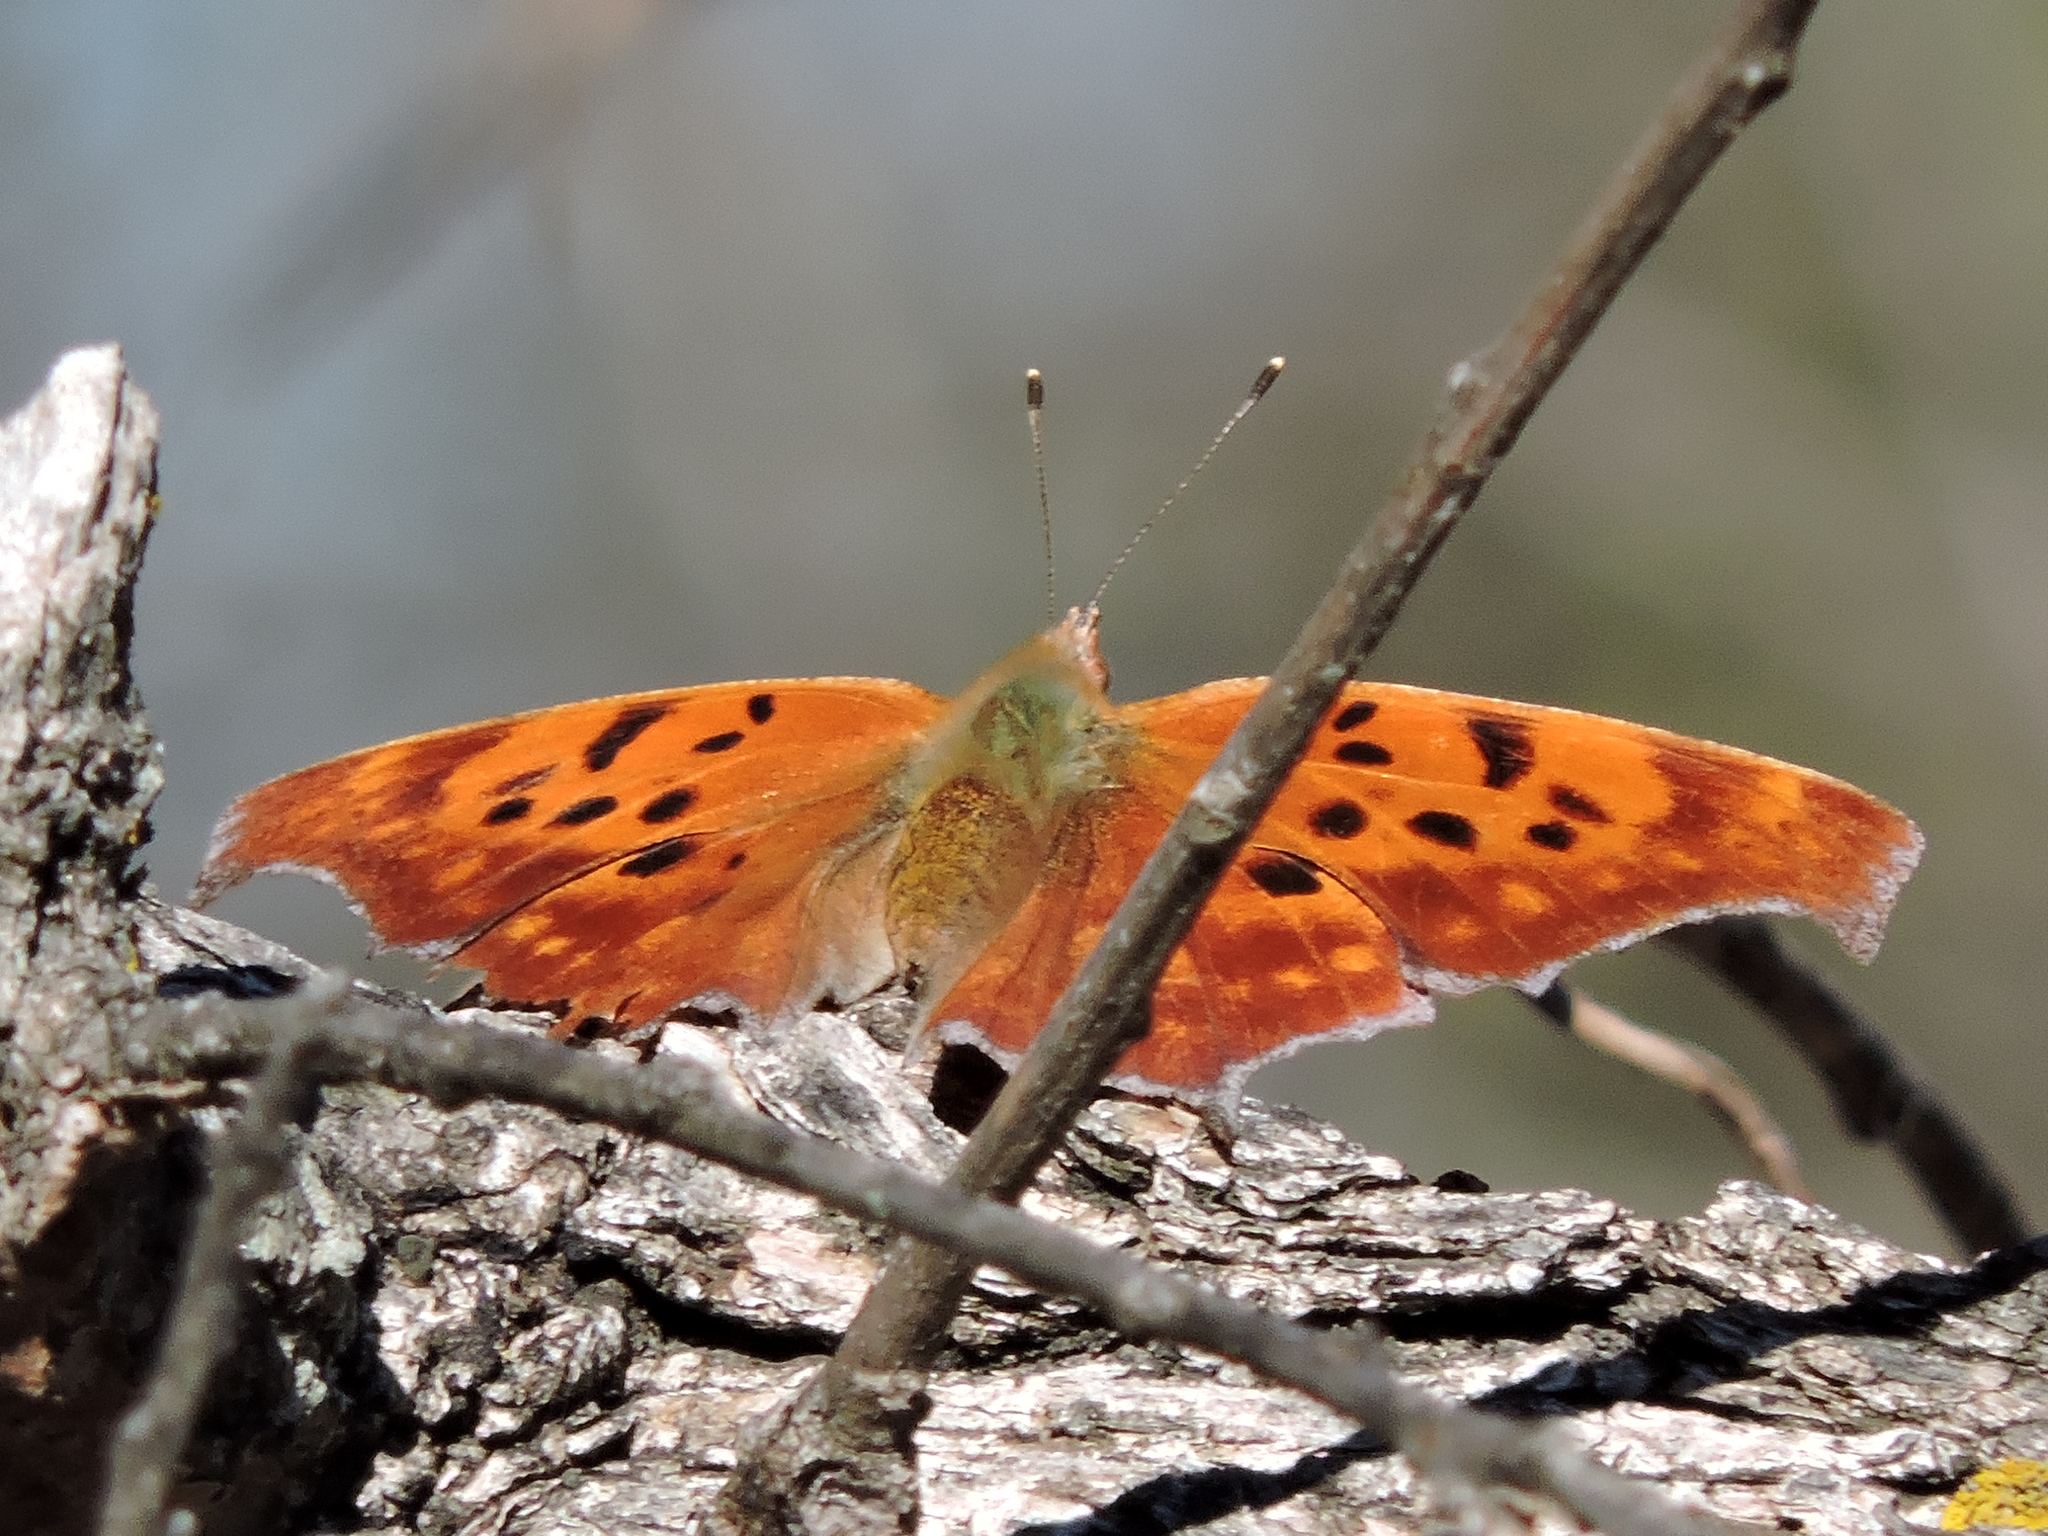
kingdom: Animalia
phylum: Arthropoda
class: Insecta
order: Lepidoptera
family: Nymphalidae
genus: Polygonia
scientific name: Polygonia interrogationis
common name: Question mark
